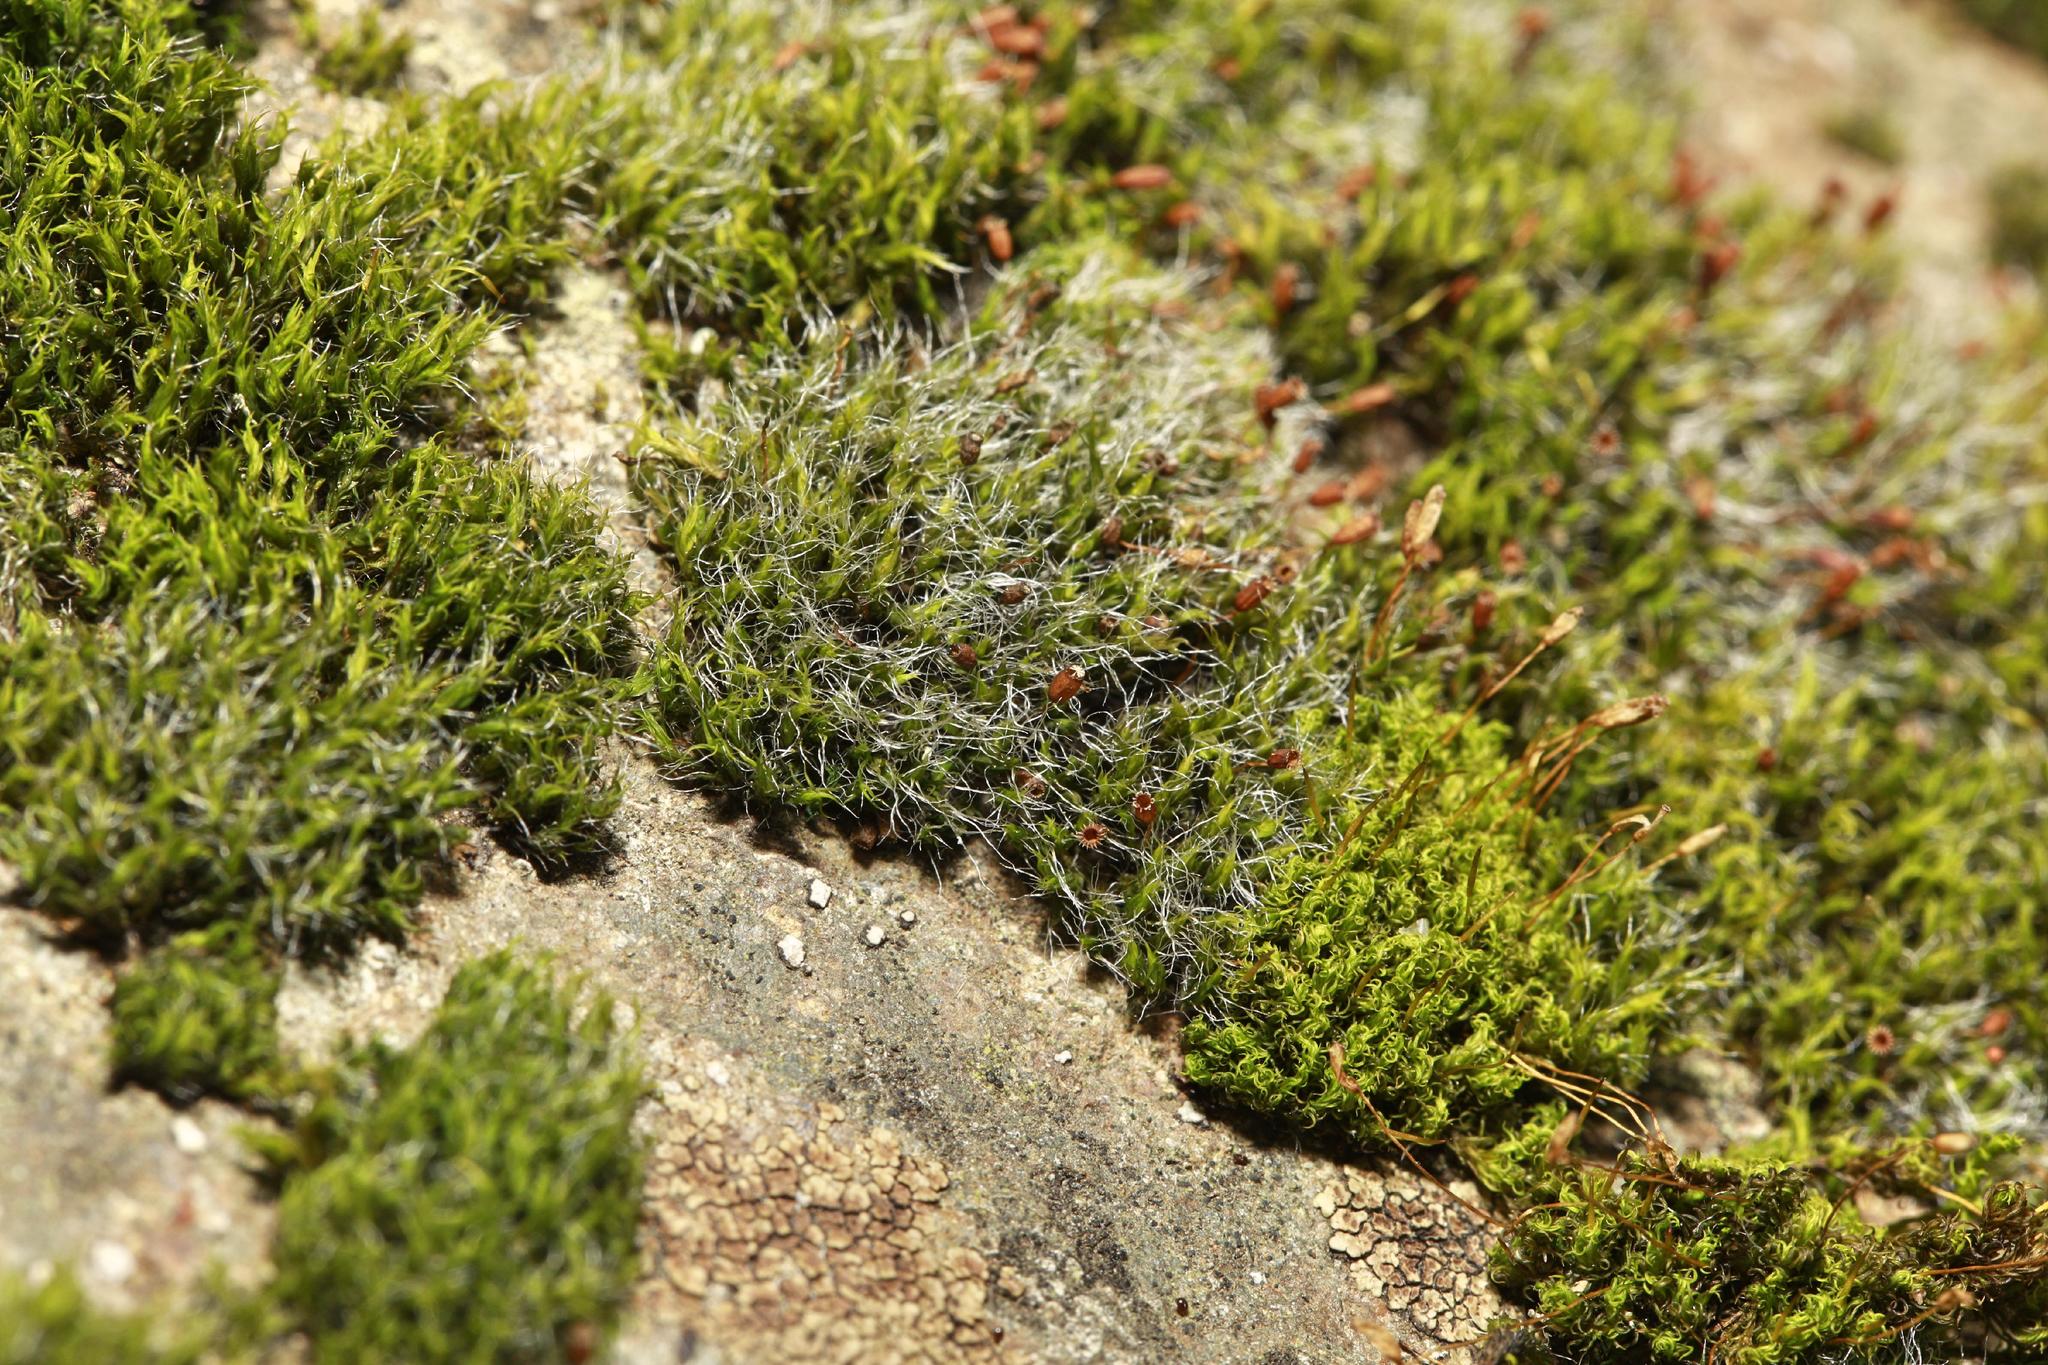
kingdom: Plantae
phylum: Bryophyta
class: Bryopsida
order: Grimmiales
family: Grimmiaceae
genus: Grimmia
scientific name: Grimmia pulvinata
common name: Grey-cushioned grimmia
